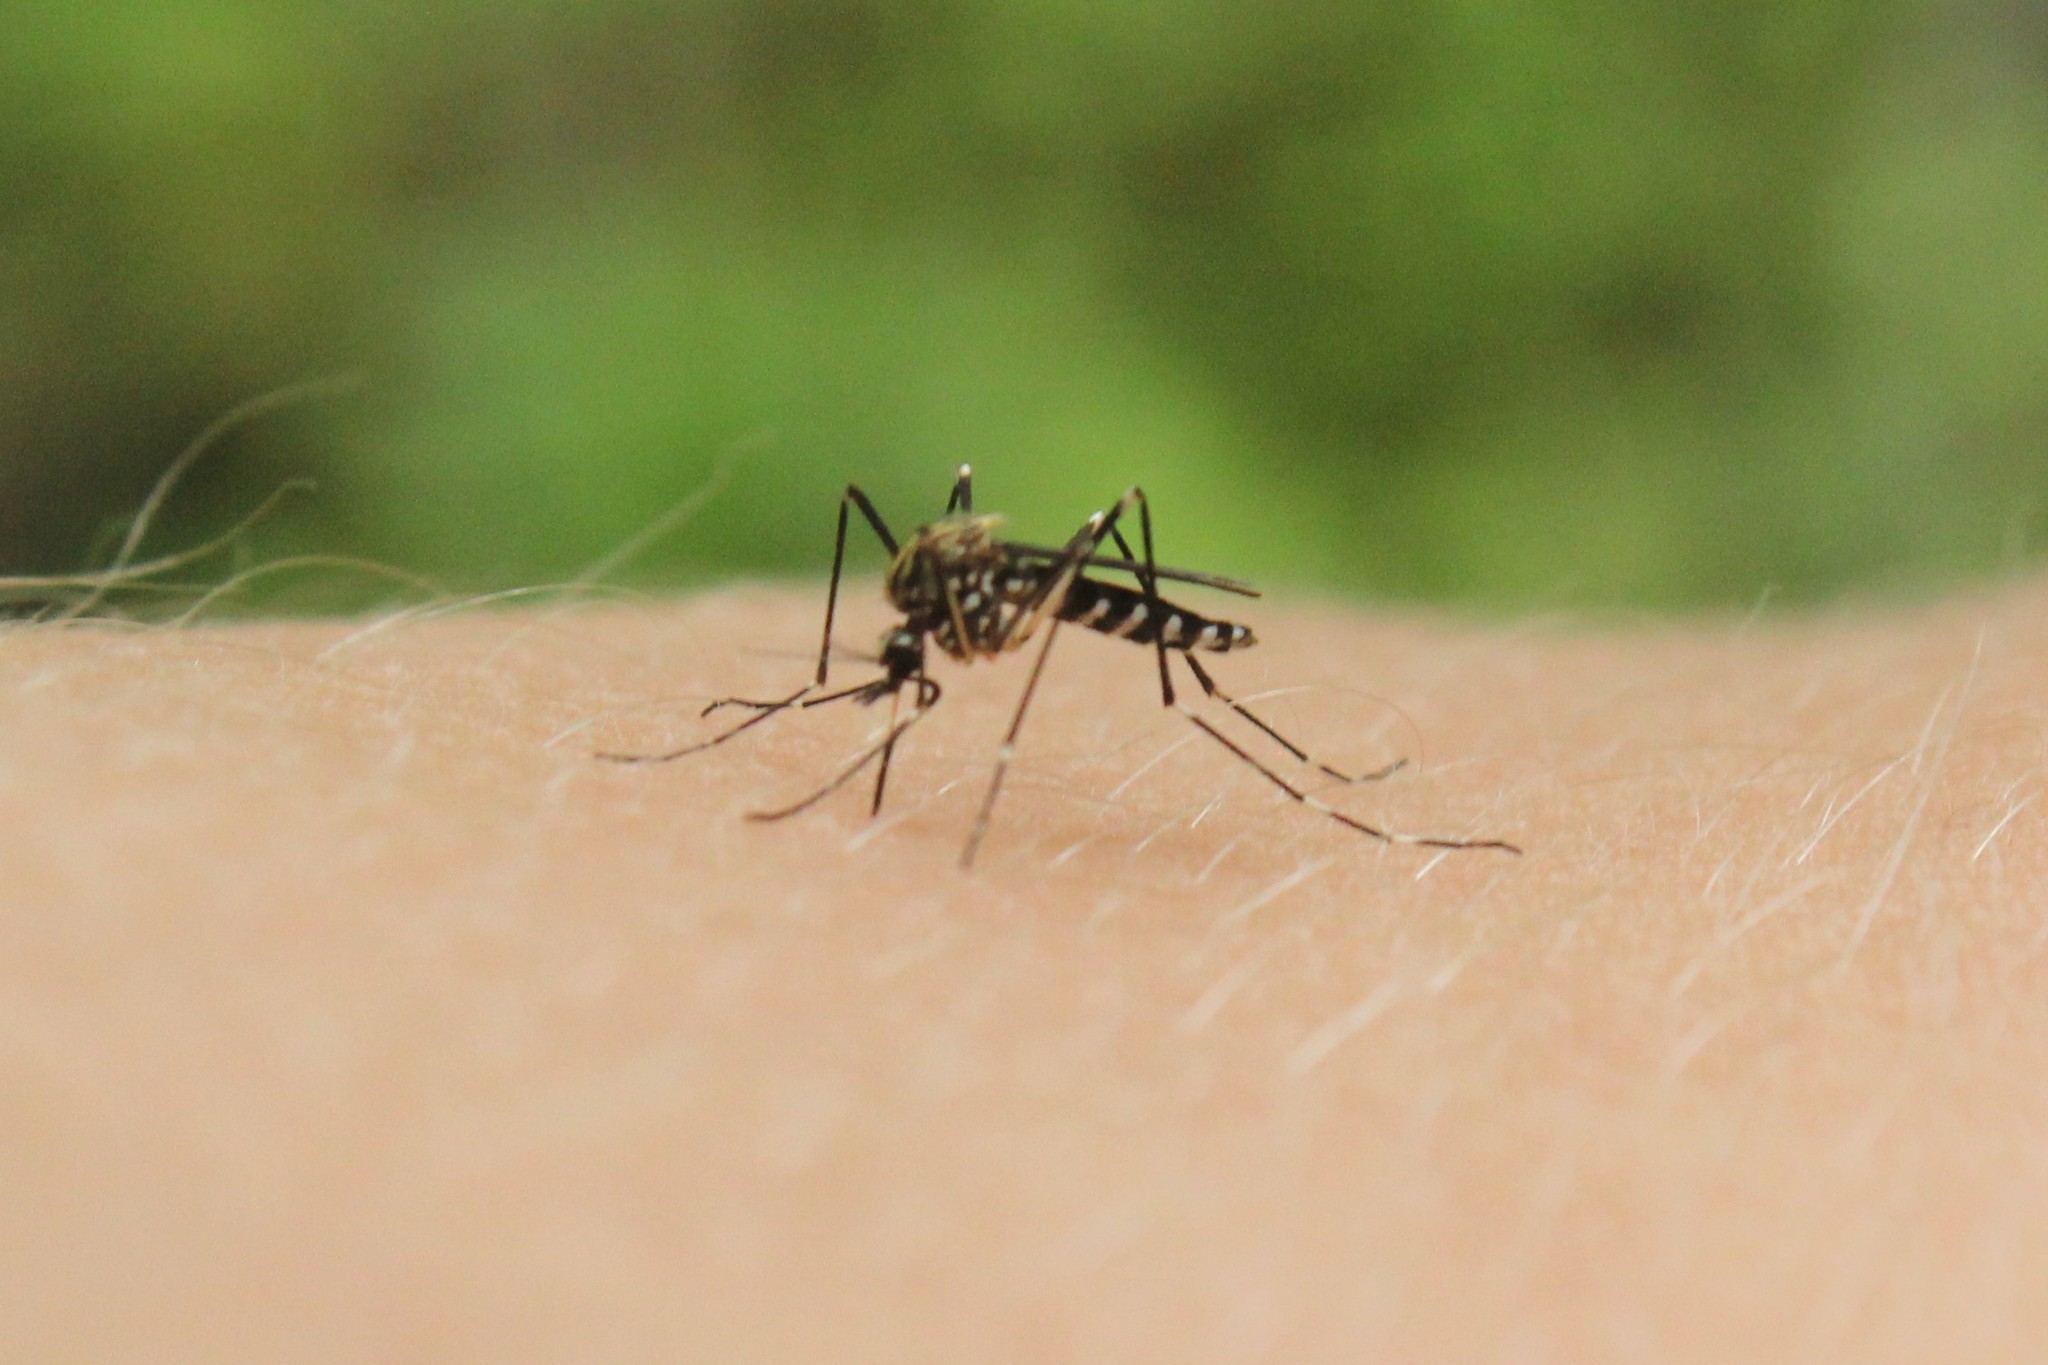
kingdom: Animalia
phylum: Arthropoda
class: Insecta
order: Diptera
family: Culicidae
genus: Aedes
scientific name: Aedes japonicus
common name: Asian bush mosquito
